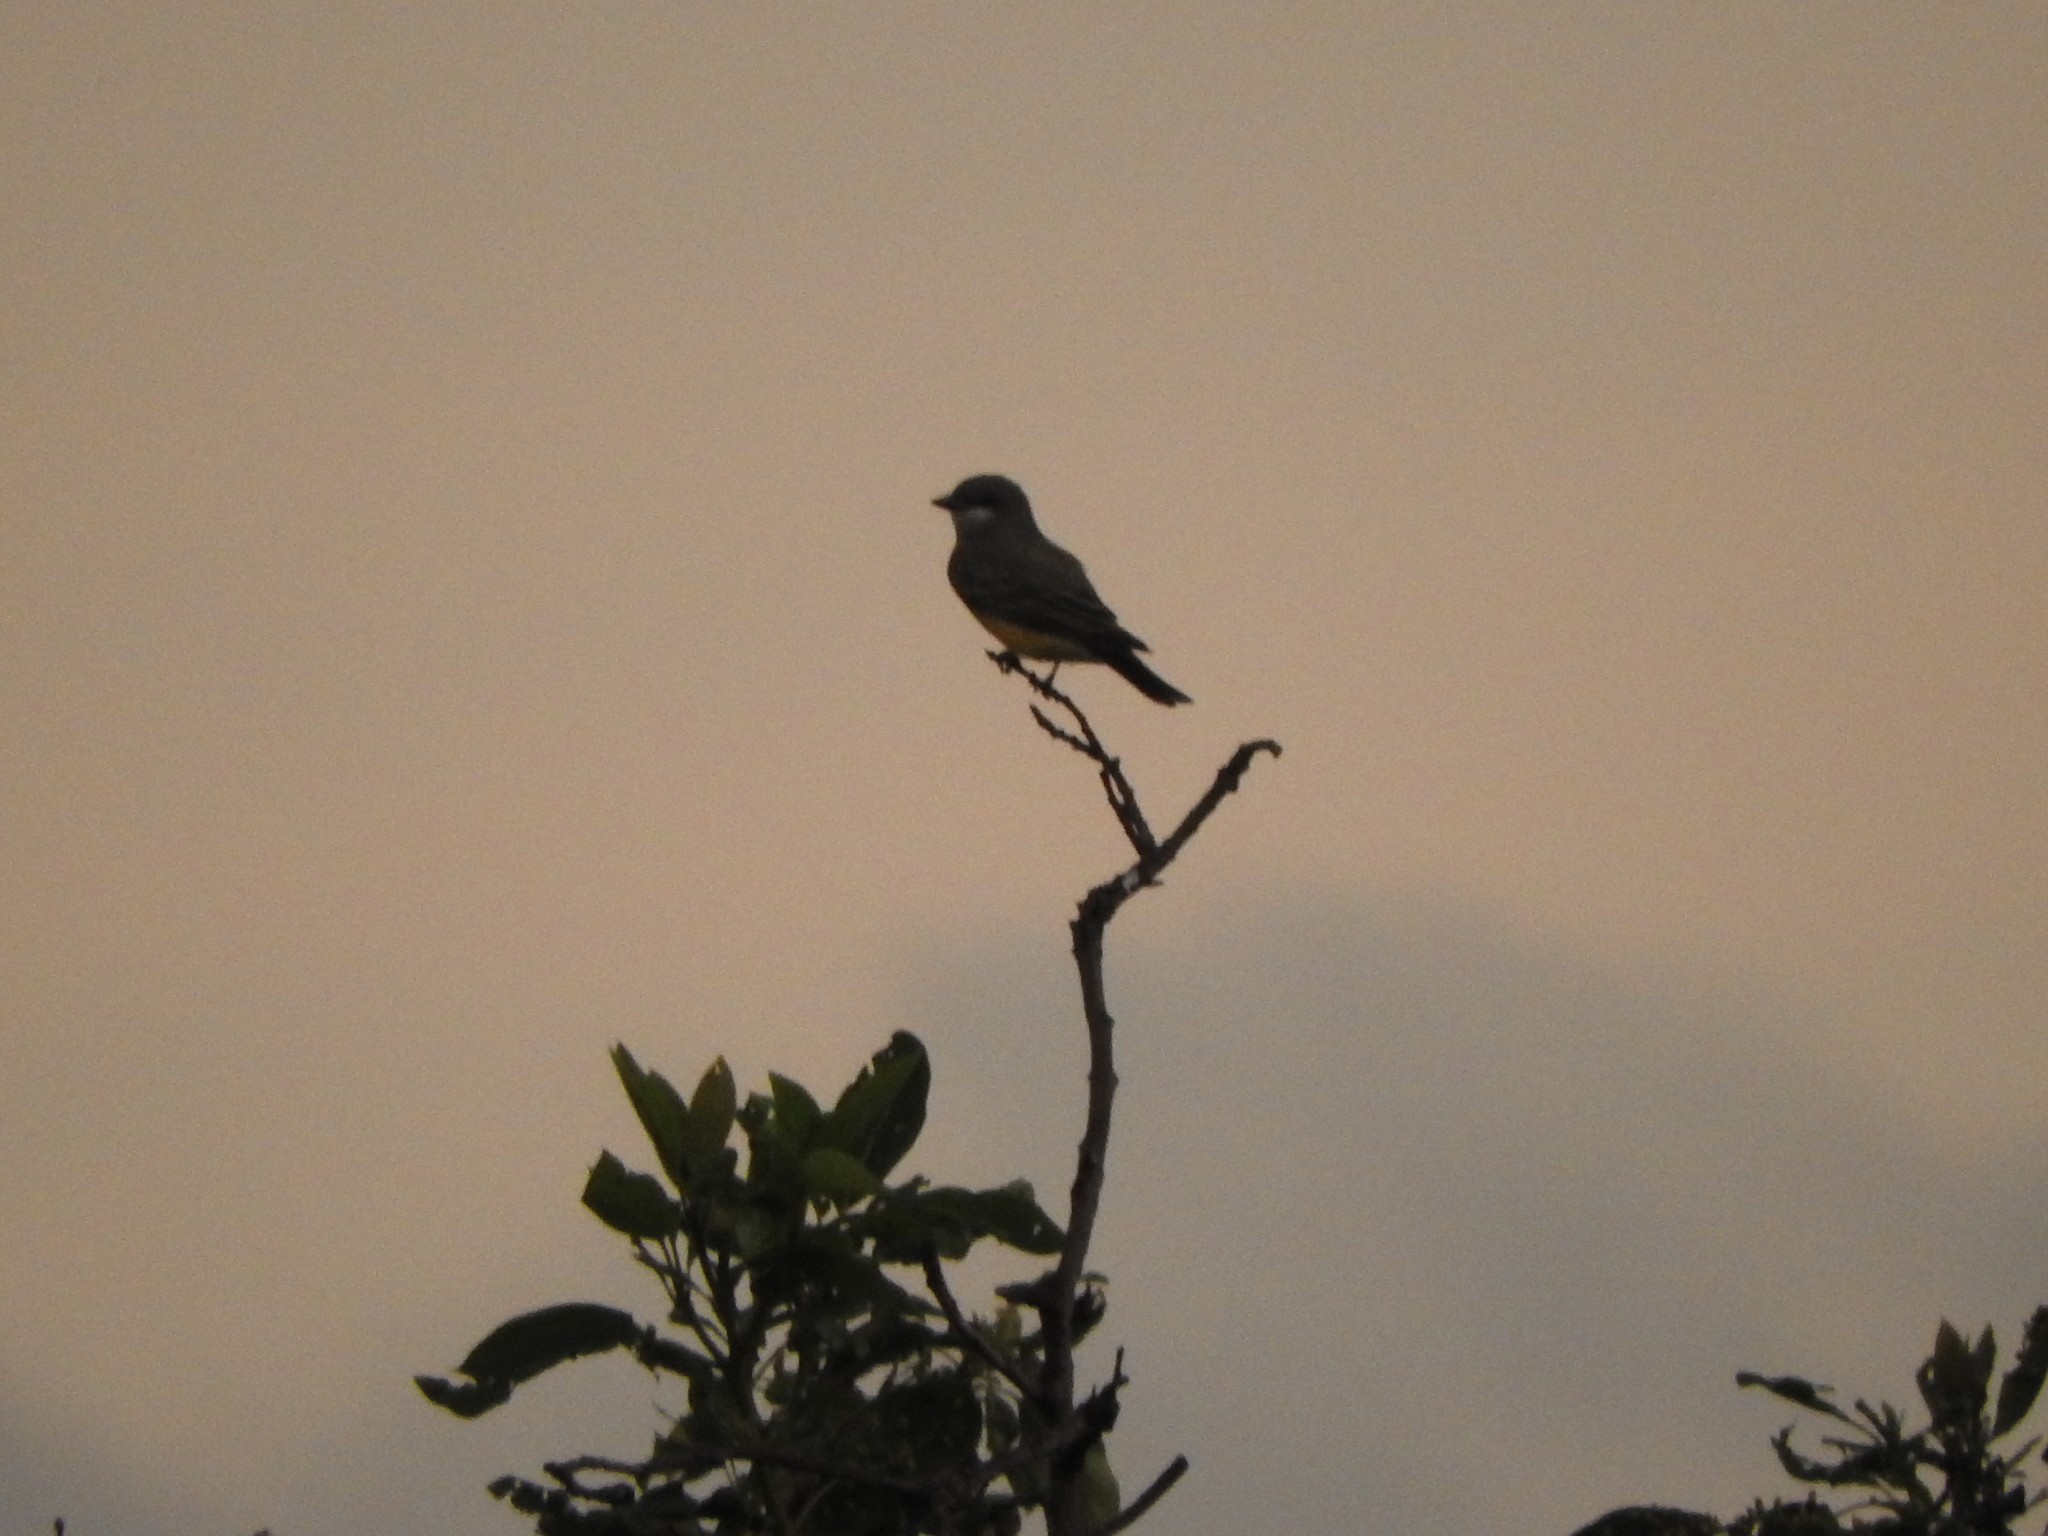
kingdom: Animalia
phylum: Chordata
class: Aves
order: Passeriformes
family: Tyrannidae
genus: Tyrannus
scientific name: Tyrannus vociferans
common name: Cassin's kingbird
